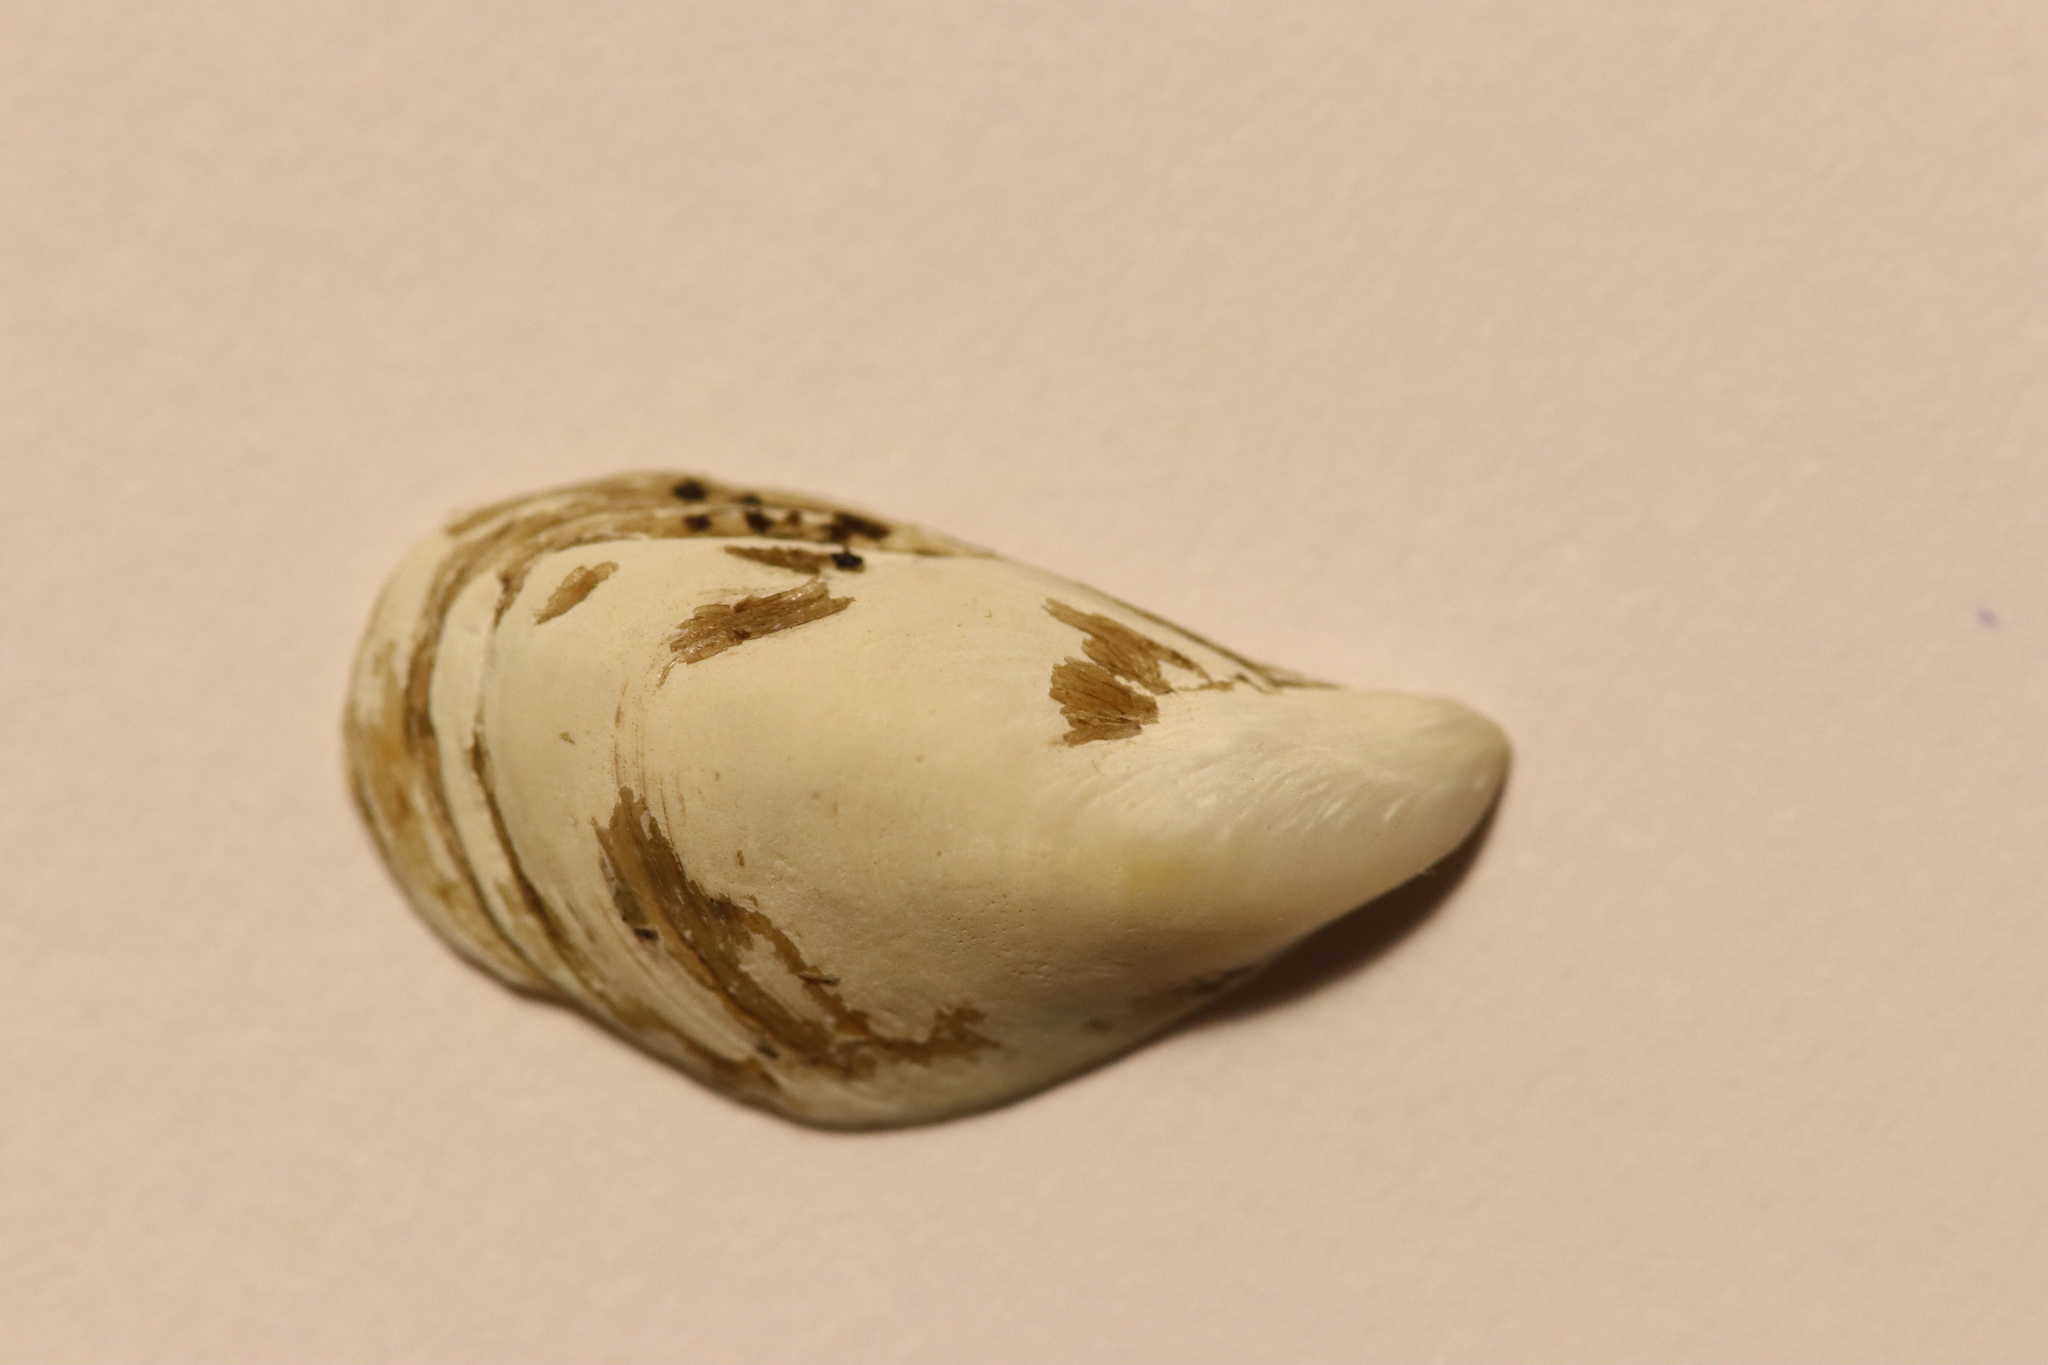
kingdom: Animalia
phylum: Mollusca
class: Bivalvia
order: Myida
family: Dreissenidae
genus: Dreissena
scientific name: Dreissena bugensis
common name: Quagga mussel
